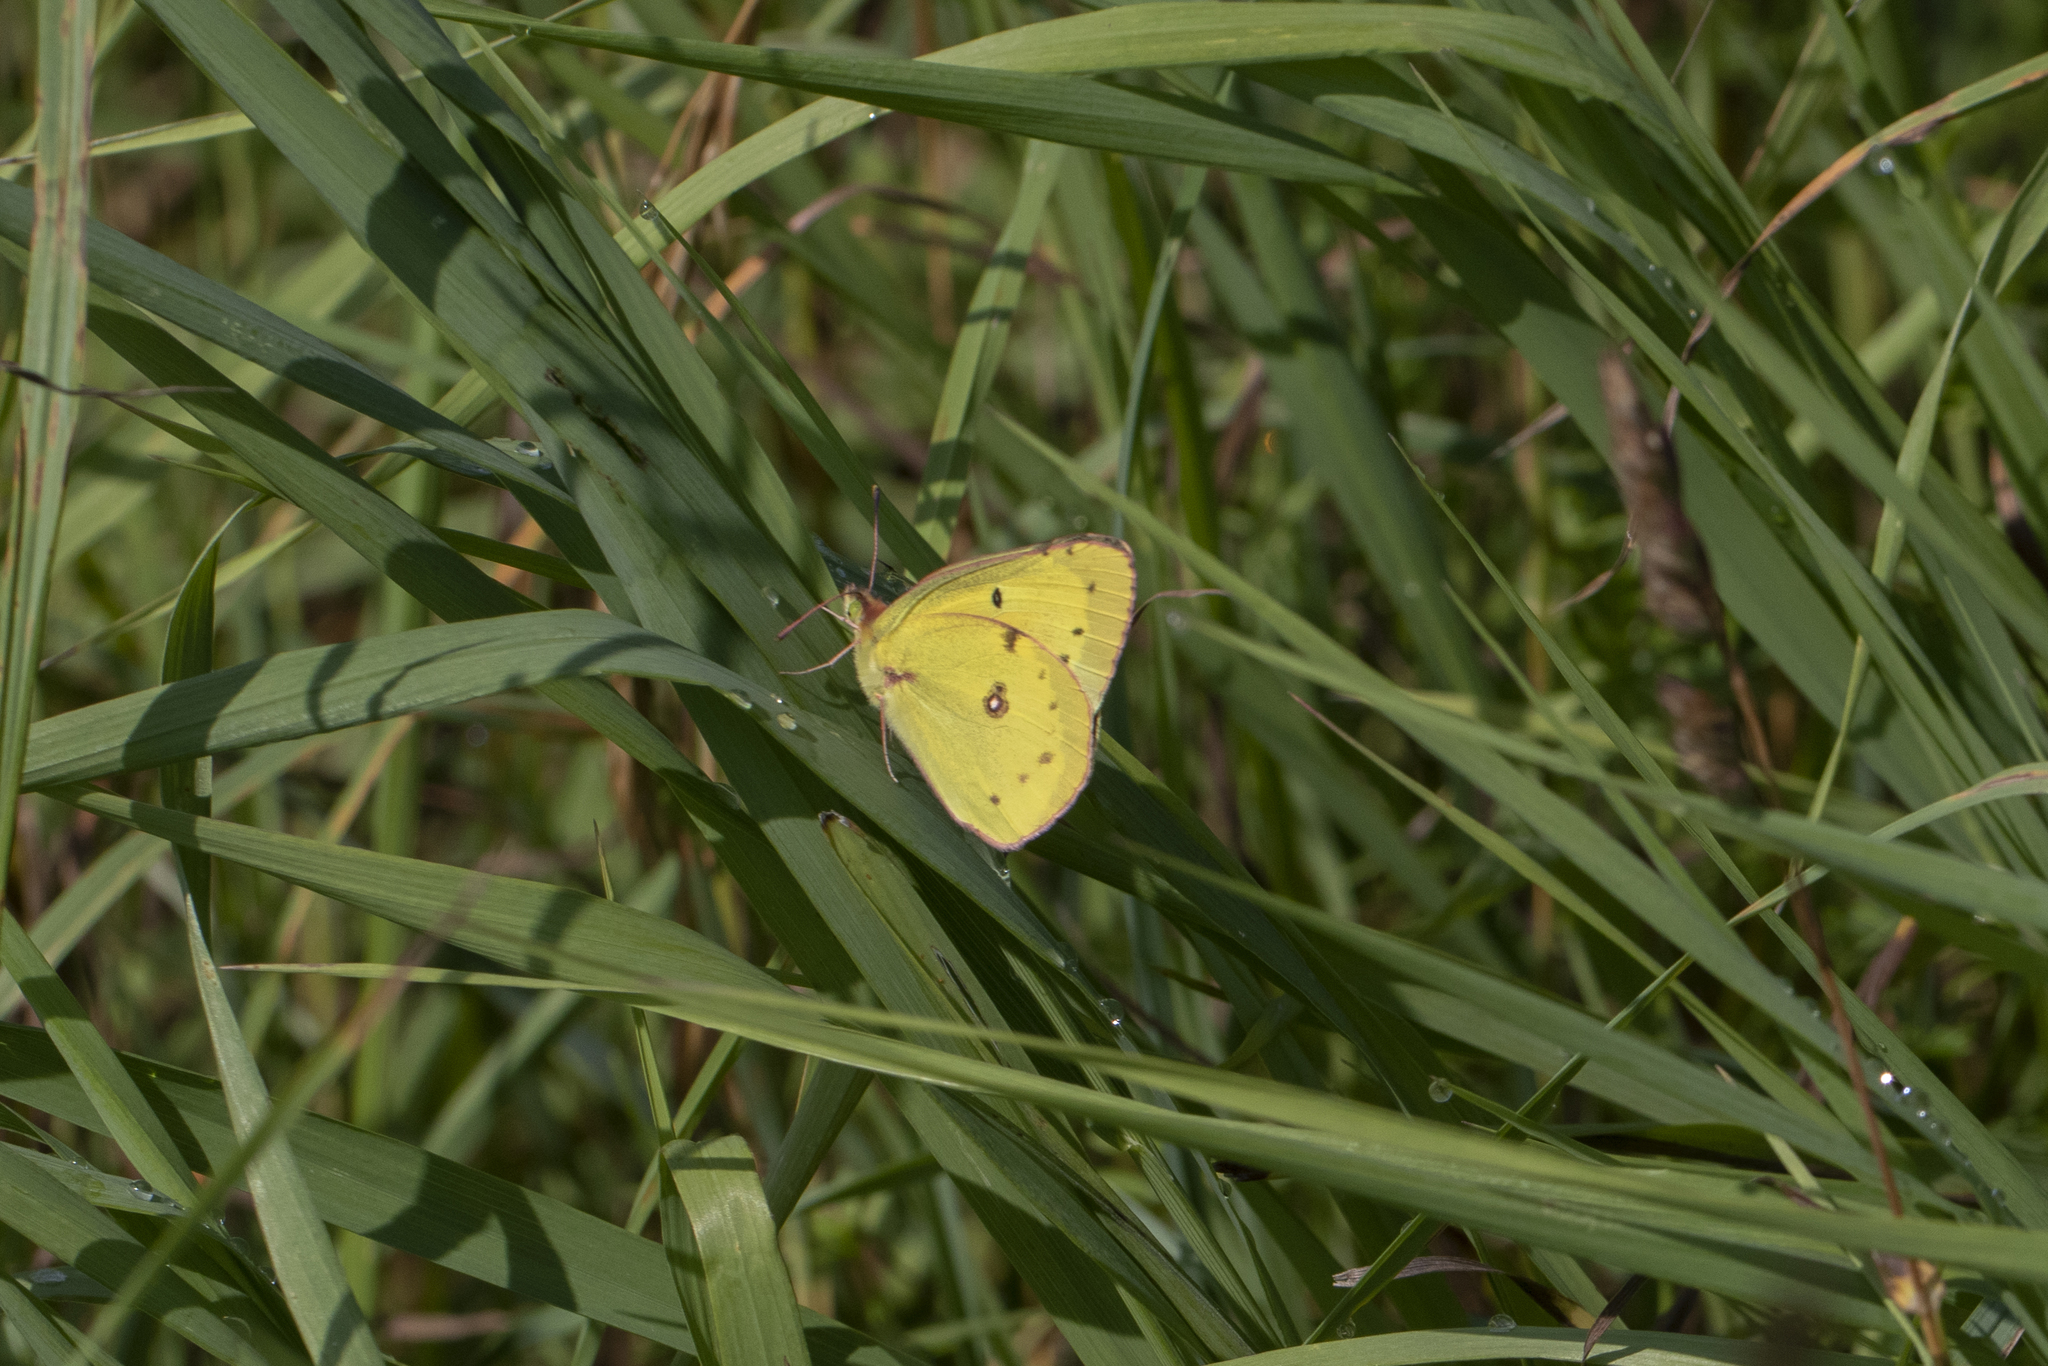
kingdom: Animalia
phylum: Arthropoda
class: Insecta
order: Lepidoptera
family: Pieridae
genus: Colias
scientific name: Colias eurytheme
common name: Alfalfa butterfly
